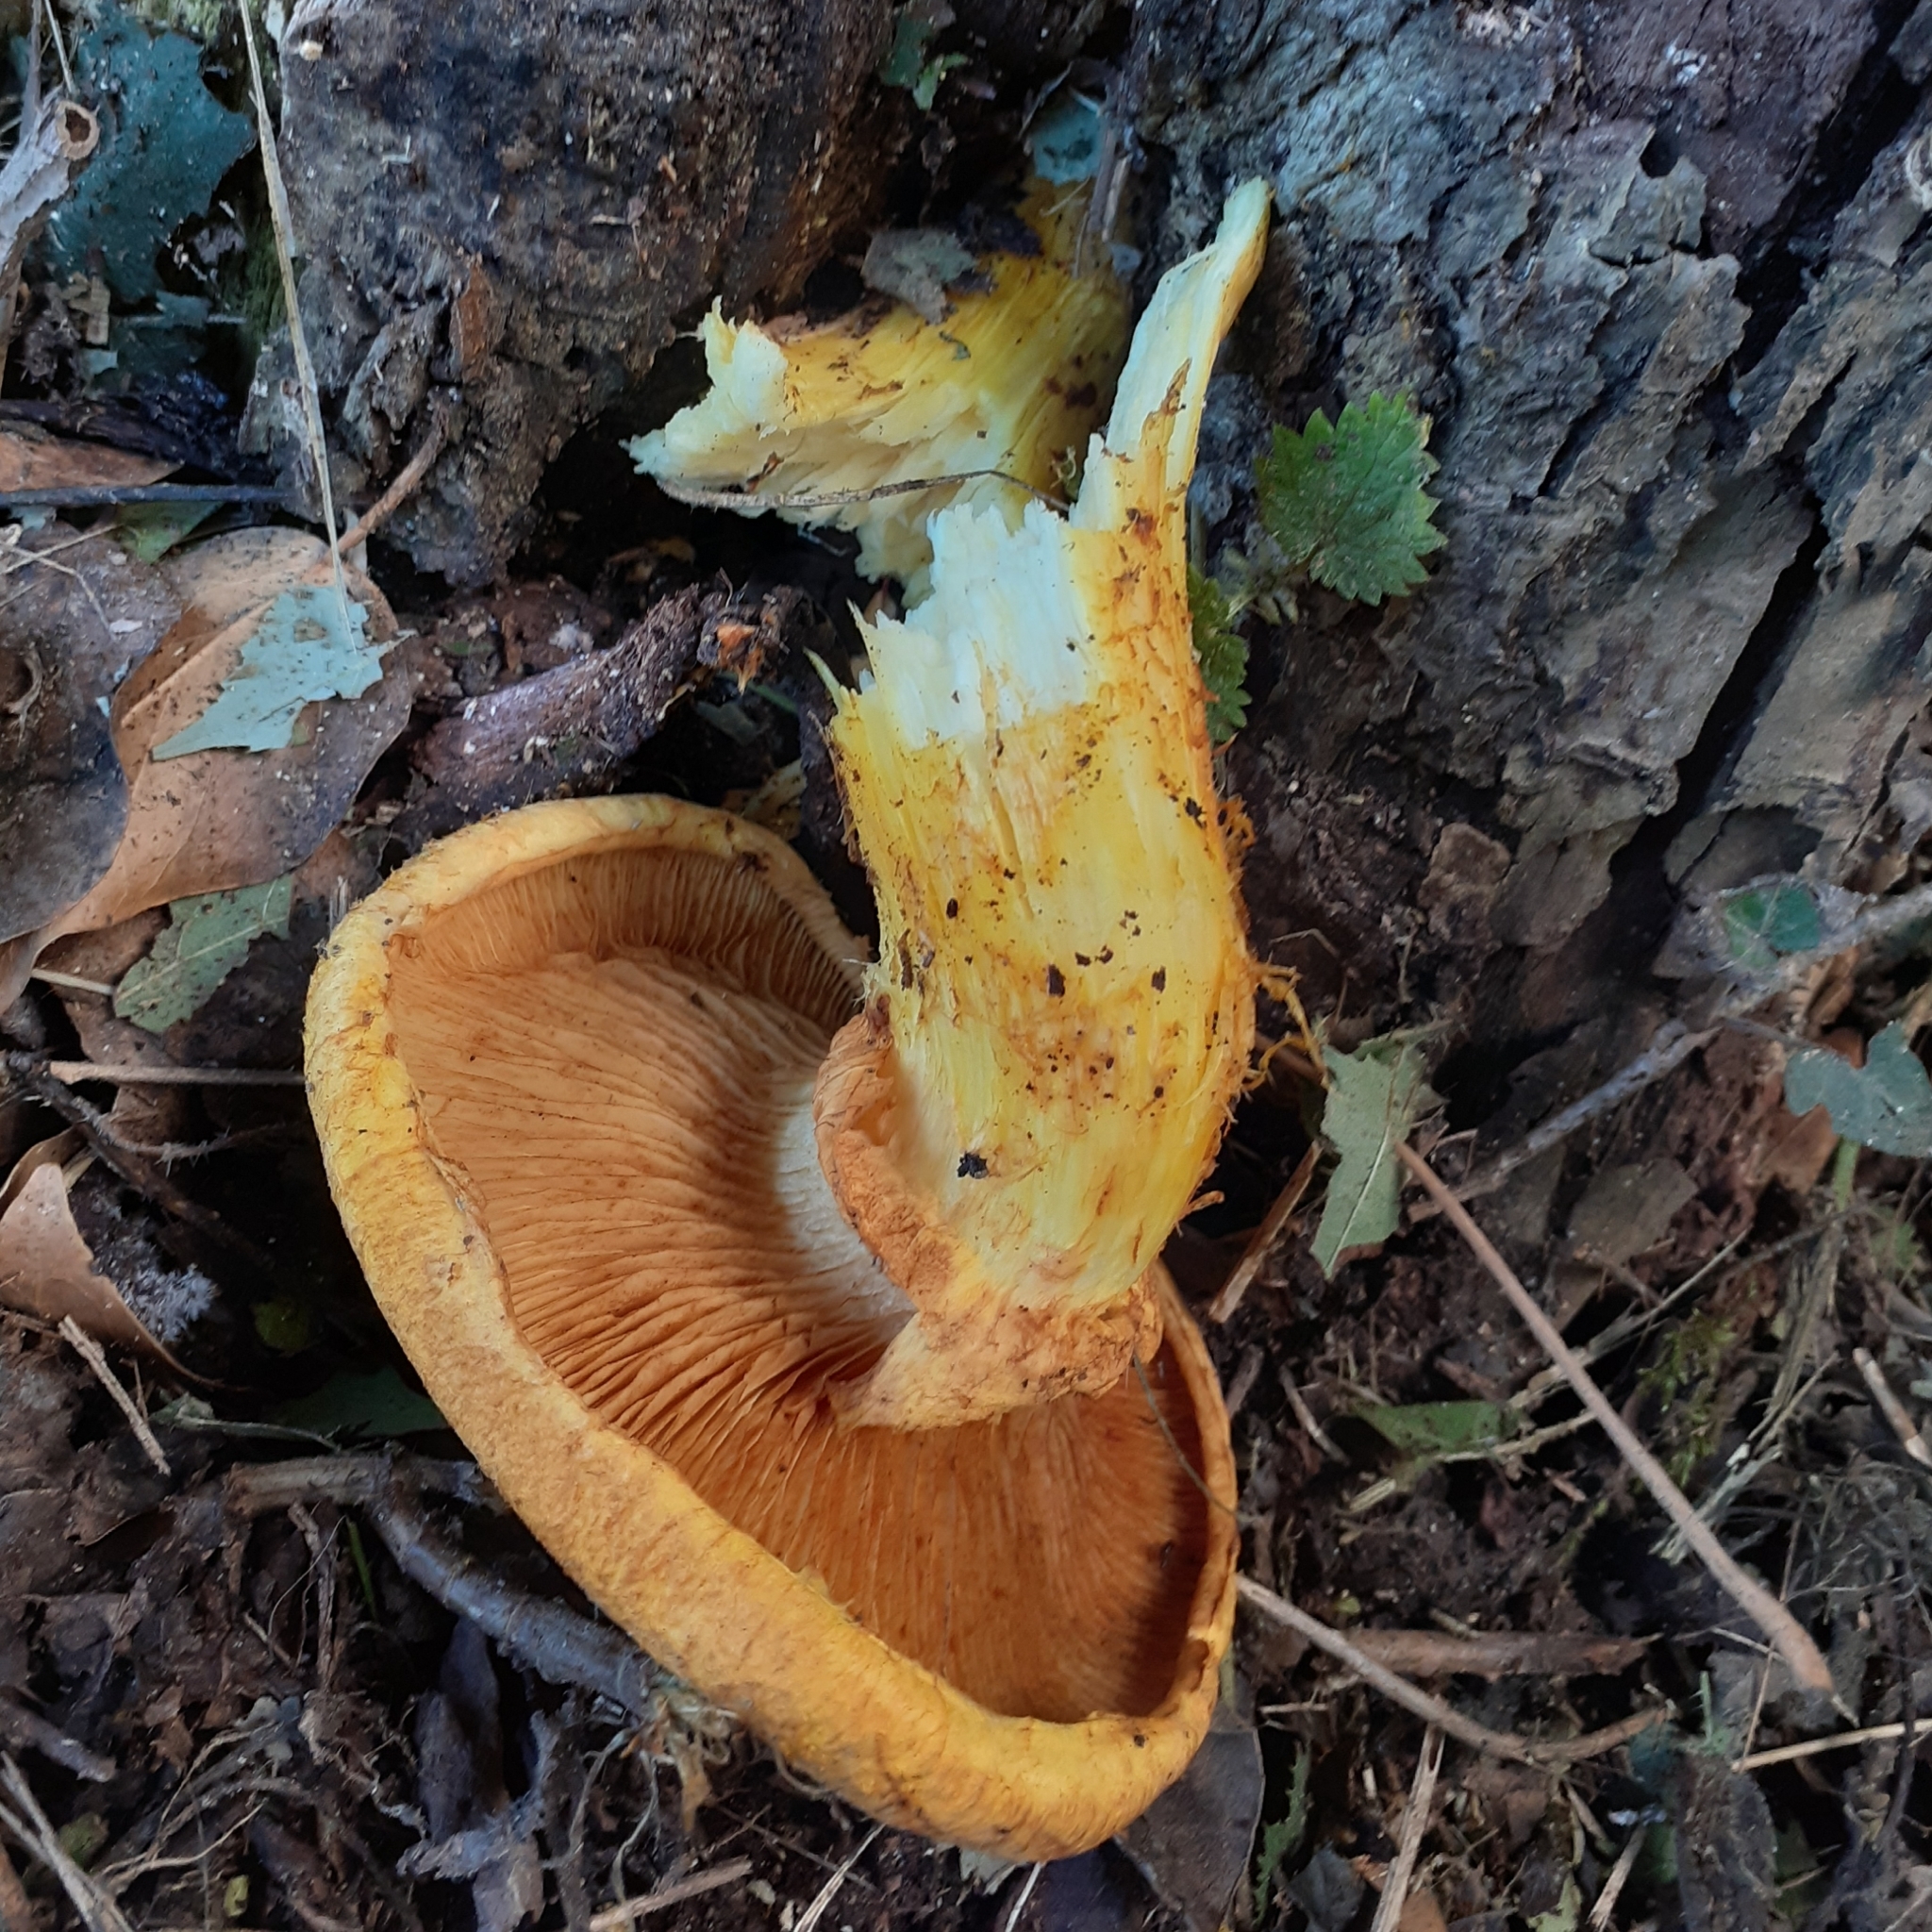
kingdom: Fungi
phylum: Basidiomycota
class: Agaricomycetes
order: Agaricales
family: Hymenogastraceae
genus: Gymnopilus
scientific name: Gymnopilus junonius
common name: Spectacular rustgill
